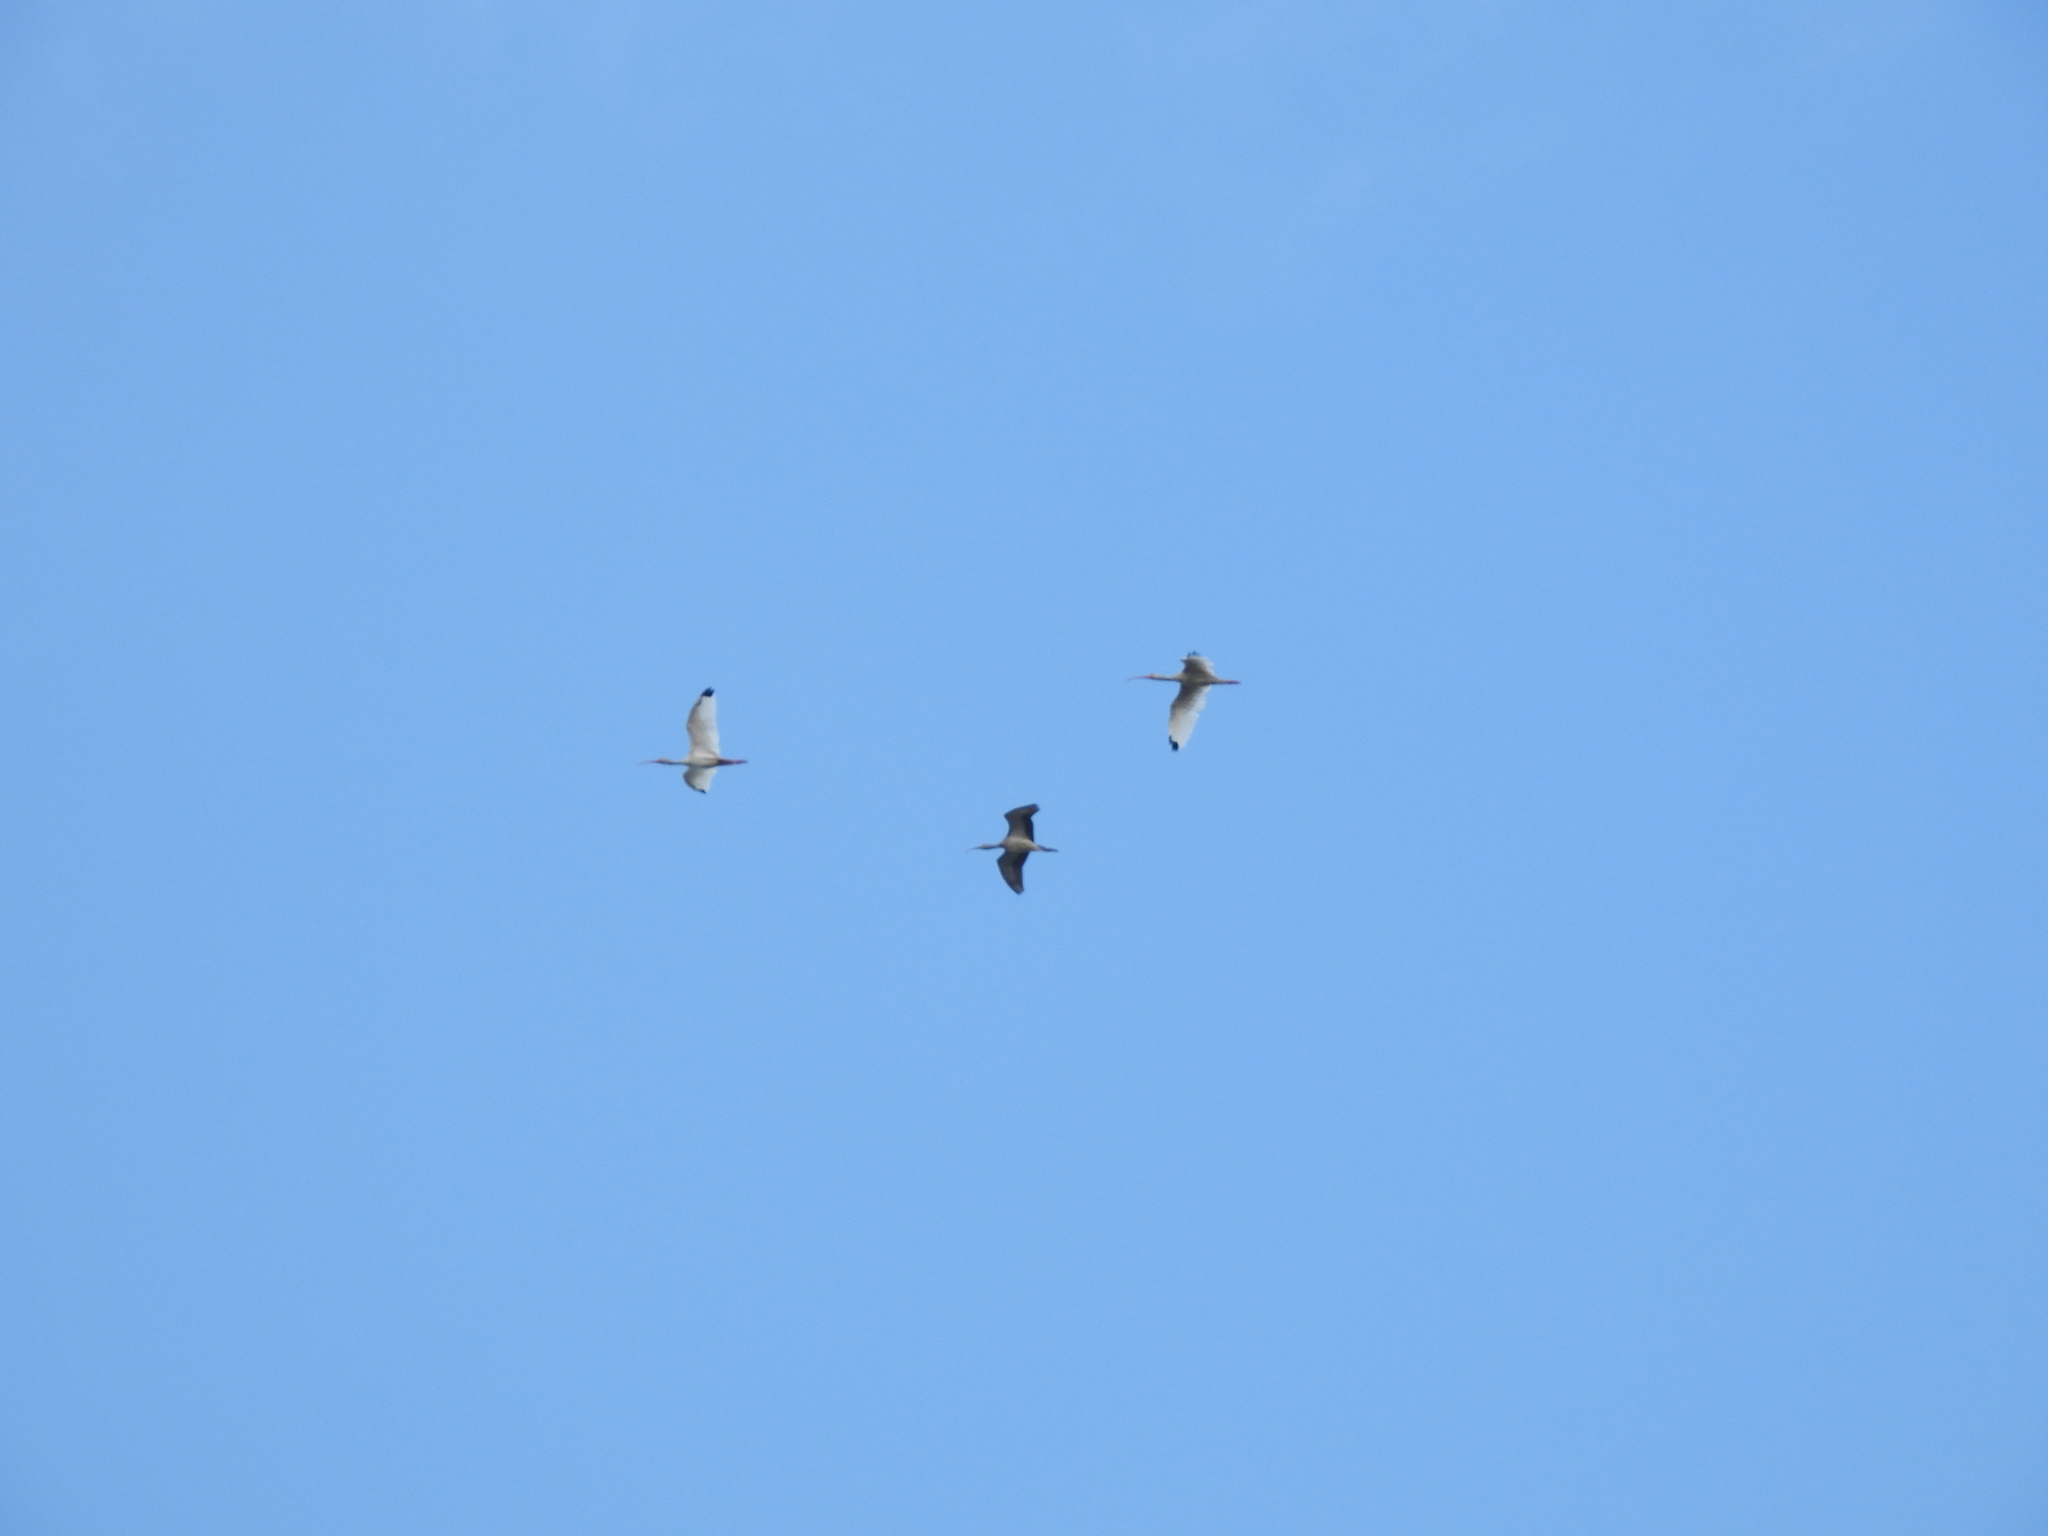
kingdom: Animalia
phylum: Chordata
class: Aves
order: Pelecaniformes
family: Threskiornithidae
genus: Eudocimus
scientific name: Eudocimus albus
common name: White ibis
